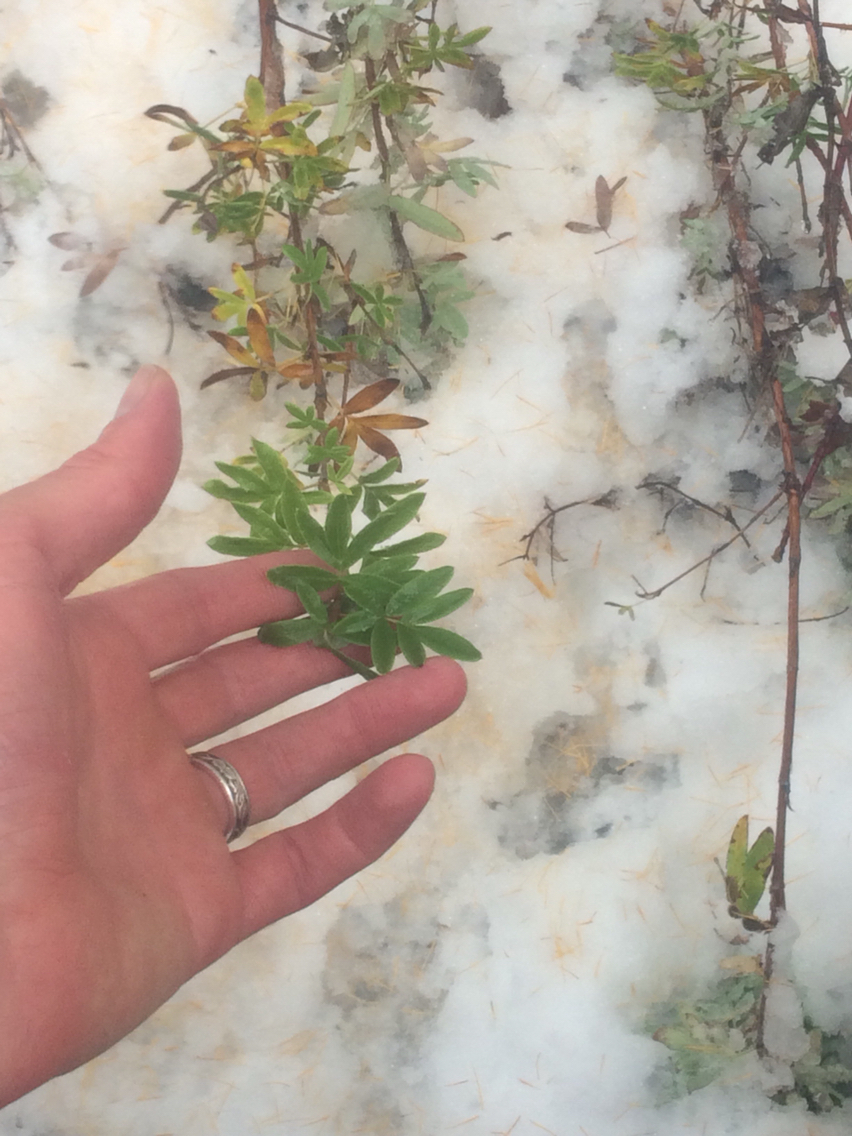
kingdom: Plantae
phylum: Tracheophyta
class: Magnoliopsida
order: Rosales
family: Rosaceae
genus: Dasiphora
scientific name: Dasiphora fruticosa
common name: Shrubby cinquefoil
